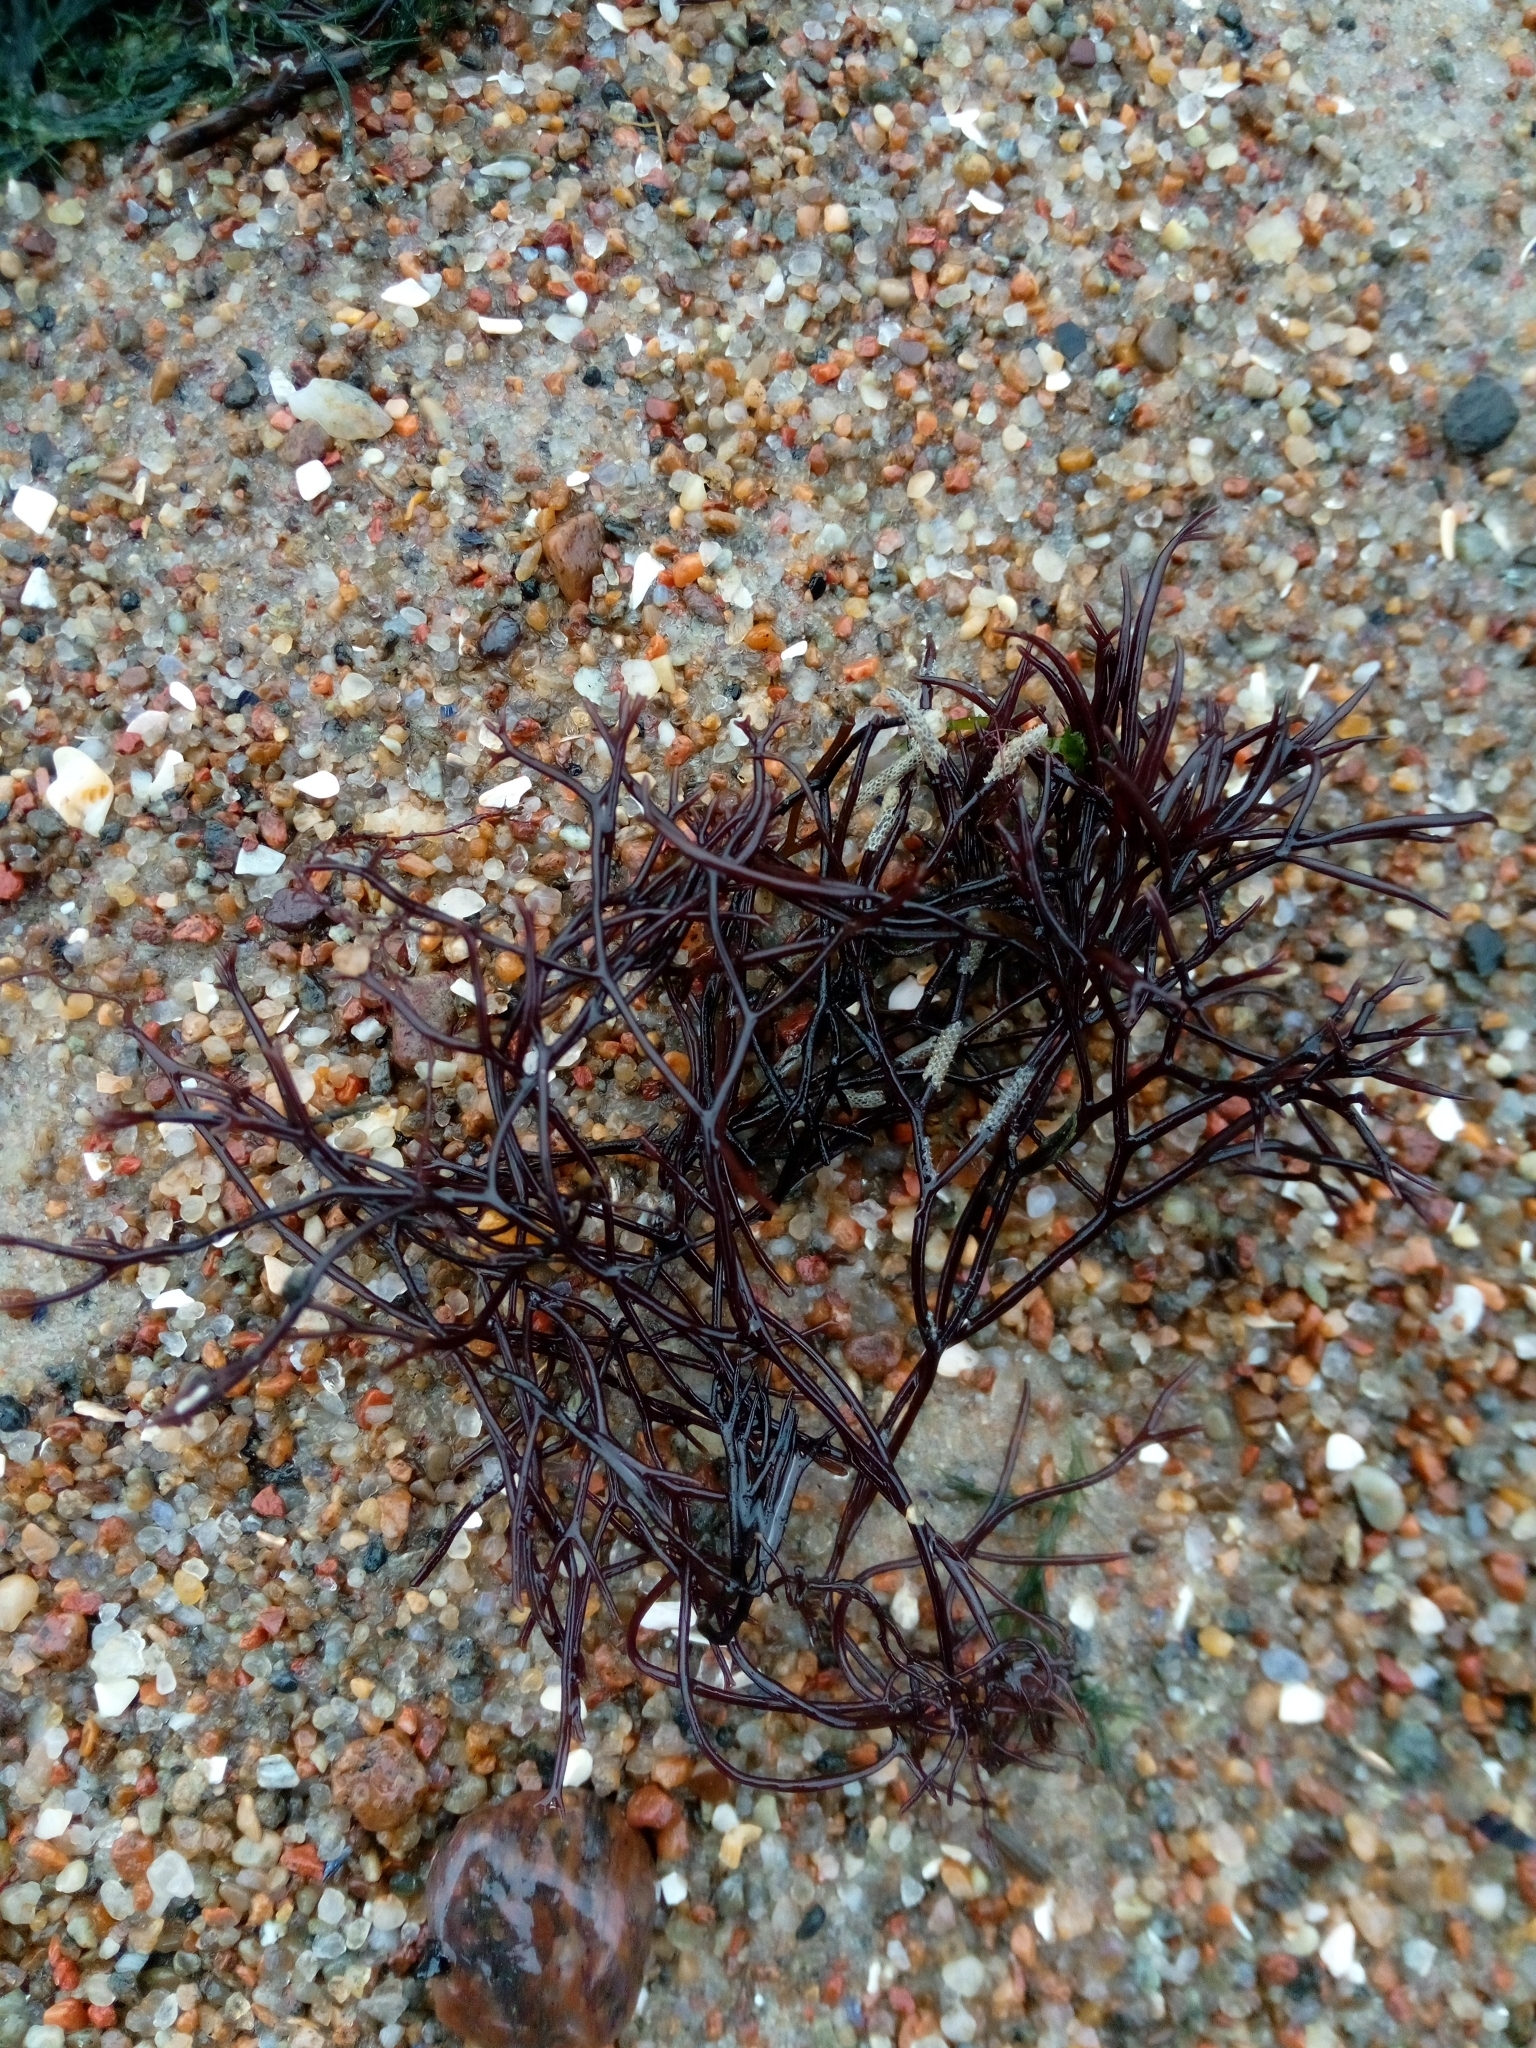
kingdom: Plantae
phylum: Rhodophyta
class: Florideophyceae
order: Gigartinales
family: Furcellariaceae
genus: Furcellaria
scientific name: Furcellaria lumbricalis
